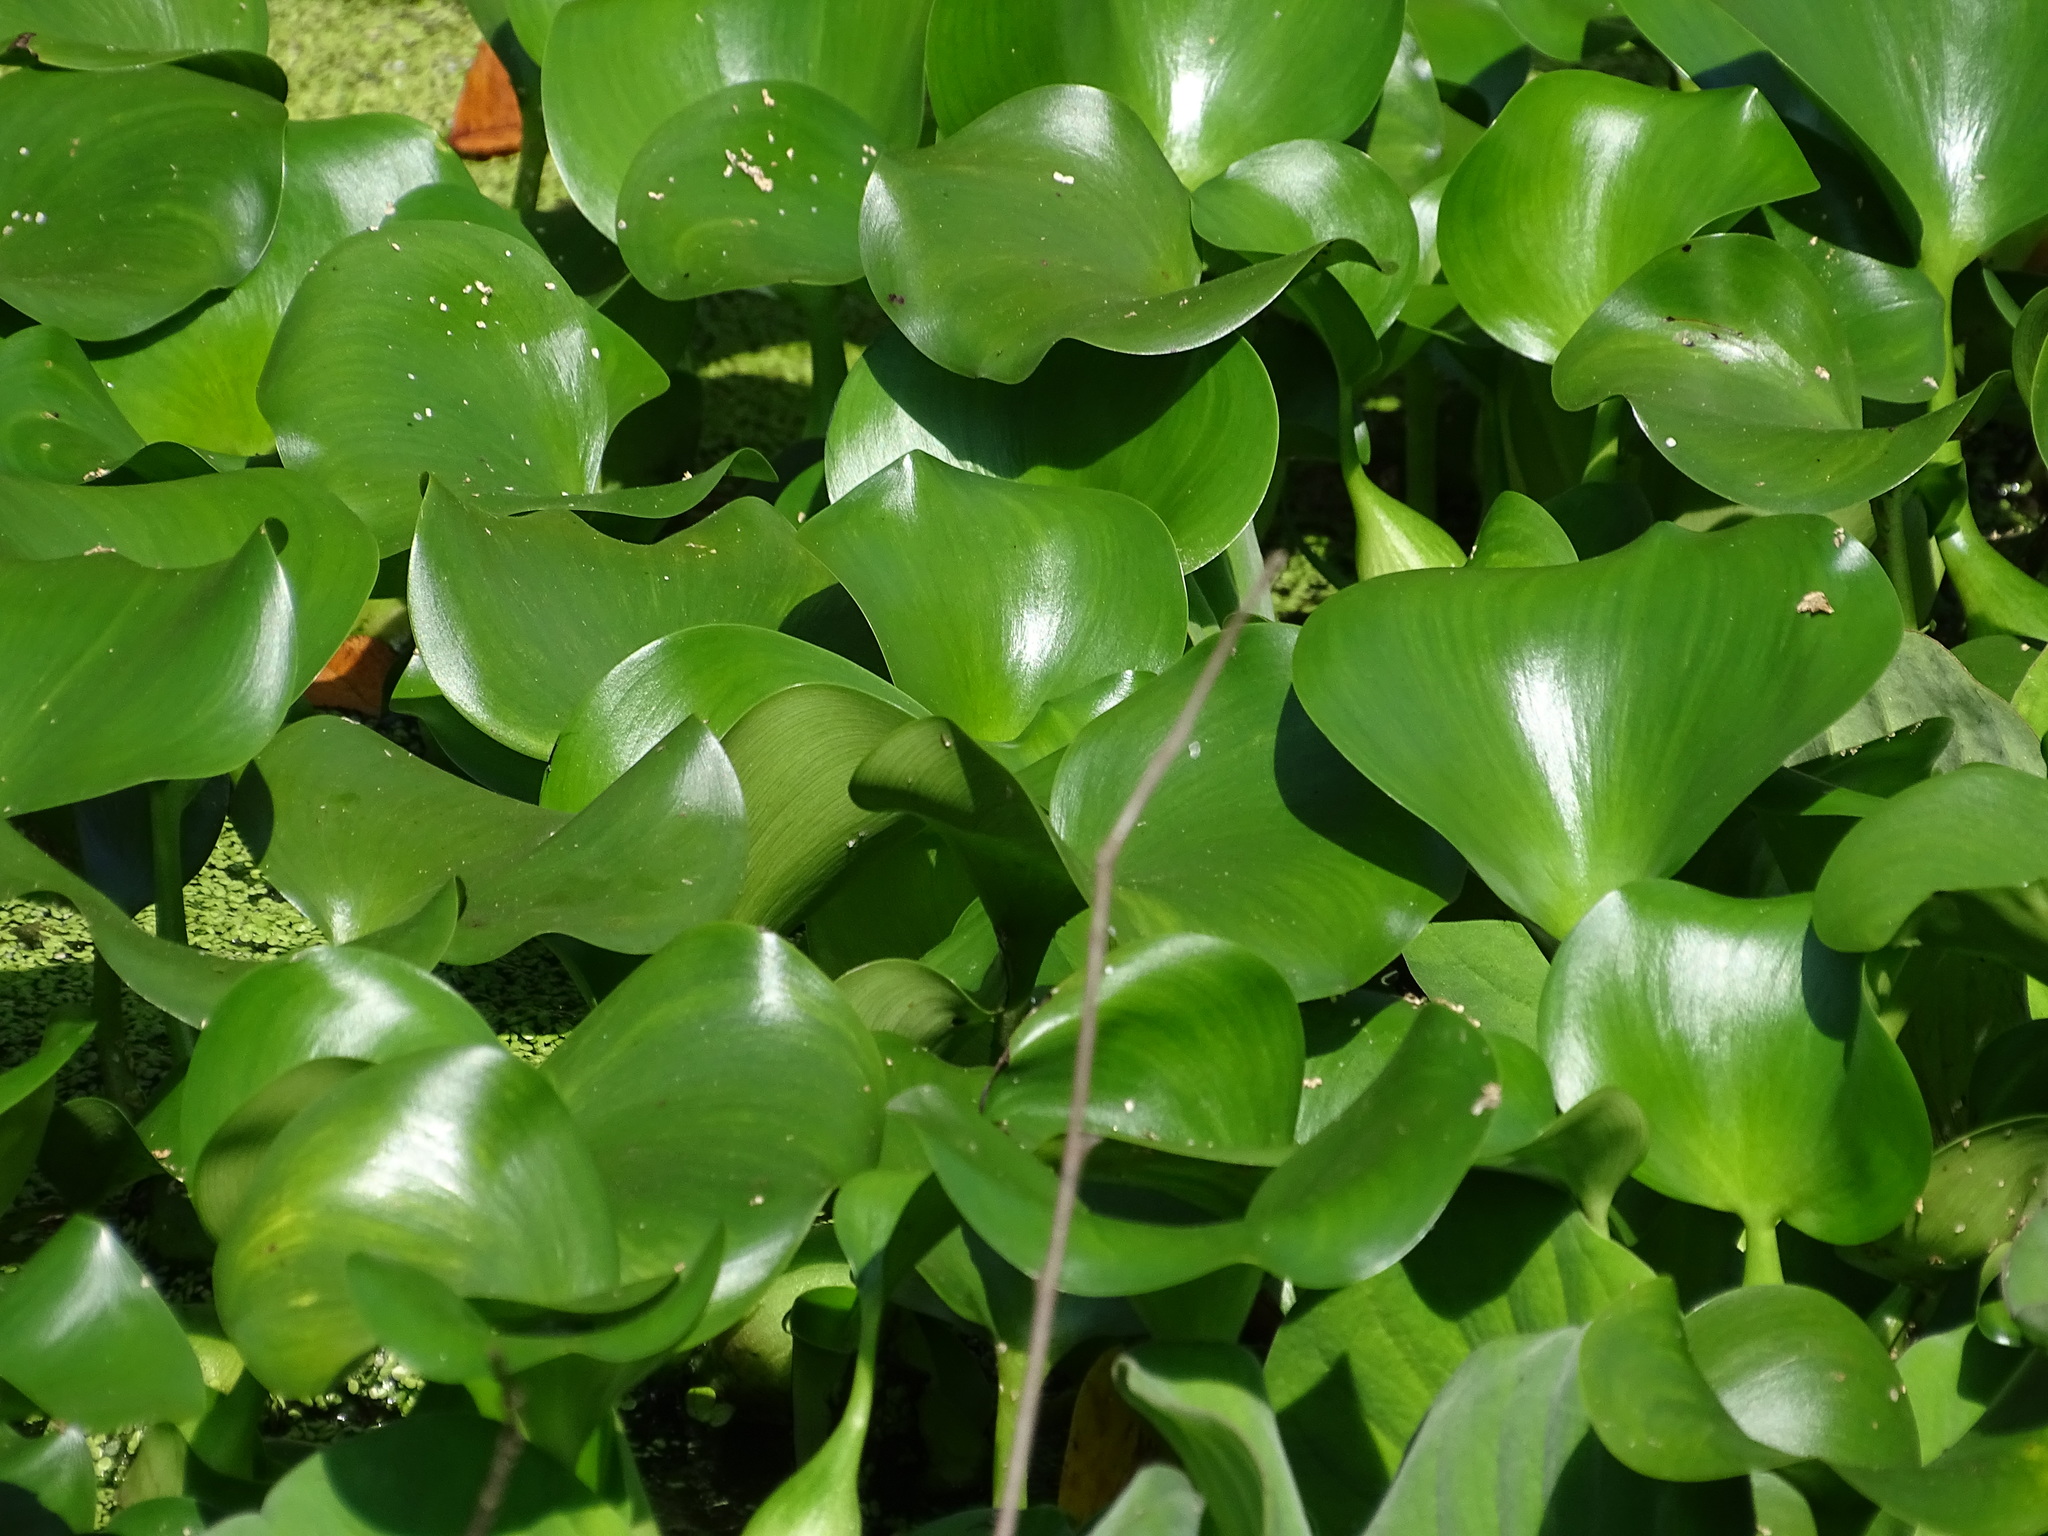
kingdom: Plantae
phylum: Tracheophyta
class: Liliopsida
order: Commelinales
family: Pontederiaceae
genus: Pontederia
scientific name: Pontederia crassipes
